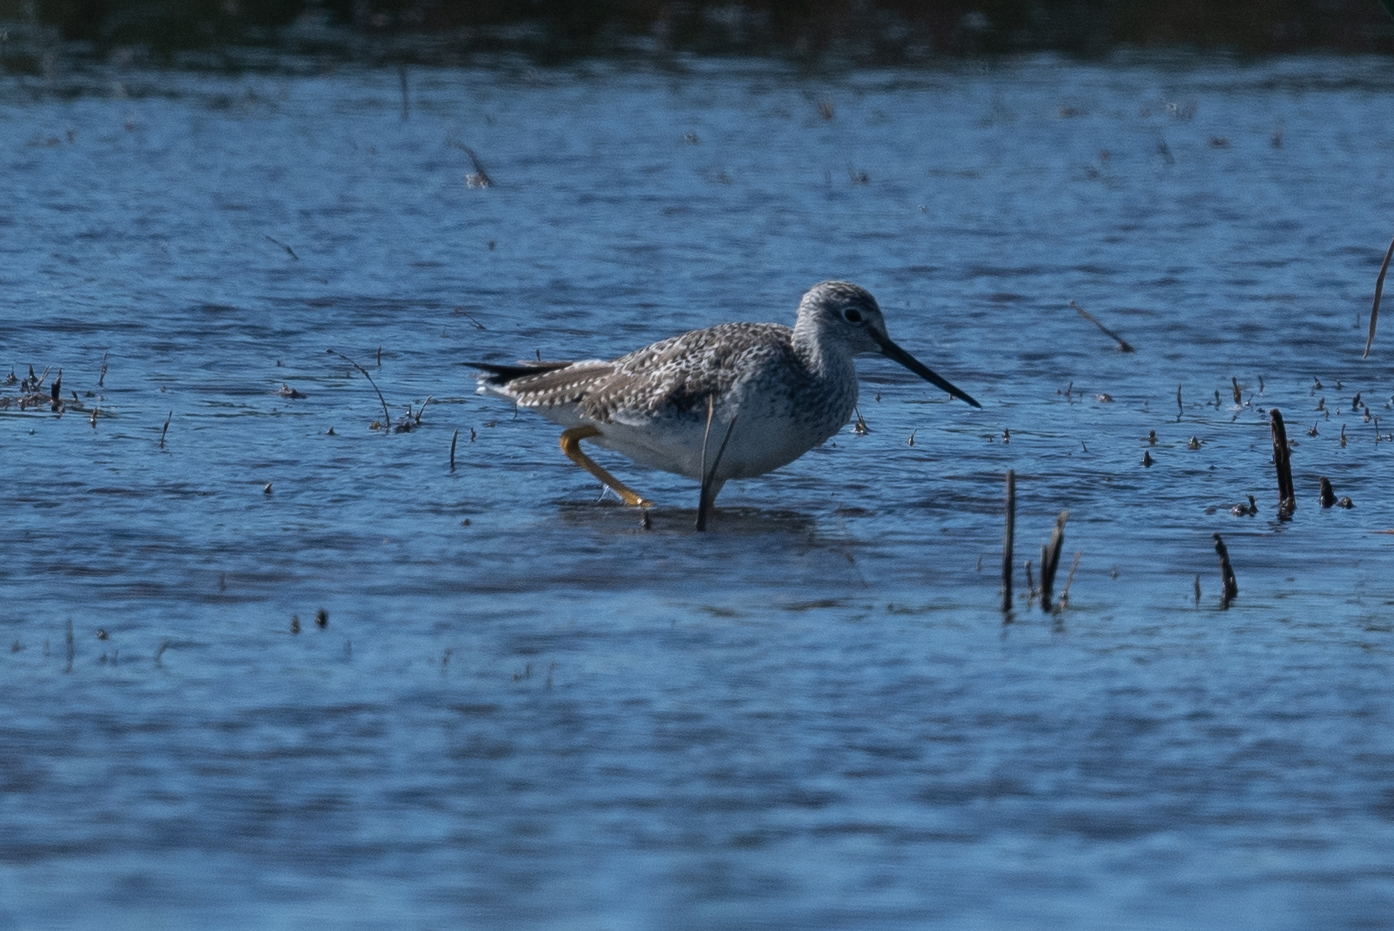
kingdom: Animalia
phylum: Chordata
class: Aves
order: Charadriiformes
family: Scolopacidae
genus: Tringa
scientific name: Tringa melanoleuca
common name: Greater yellowlegs
